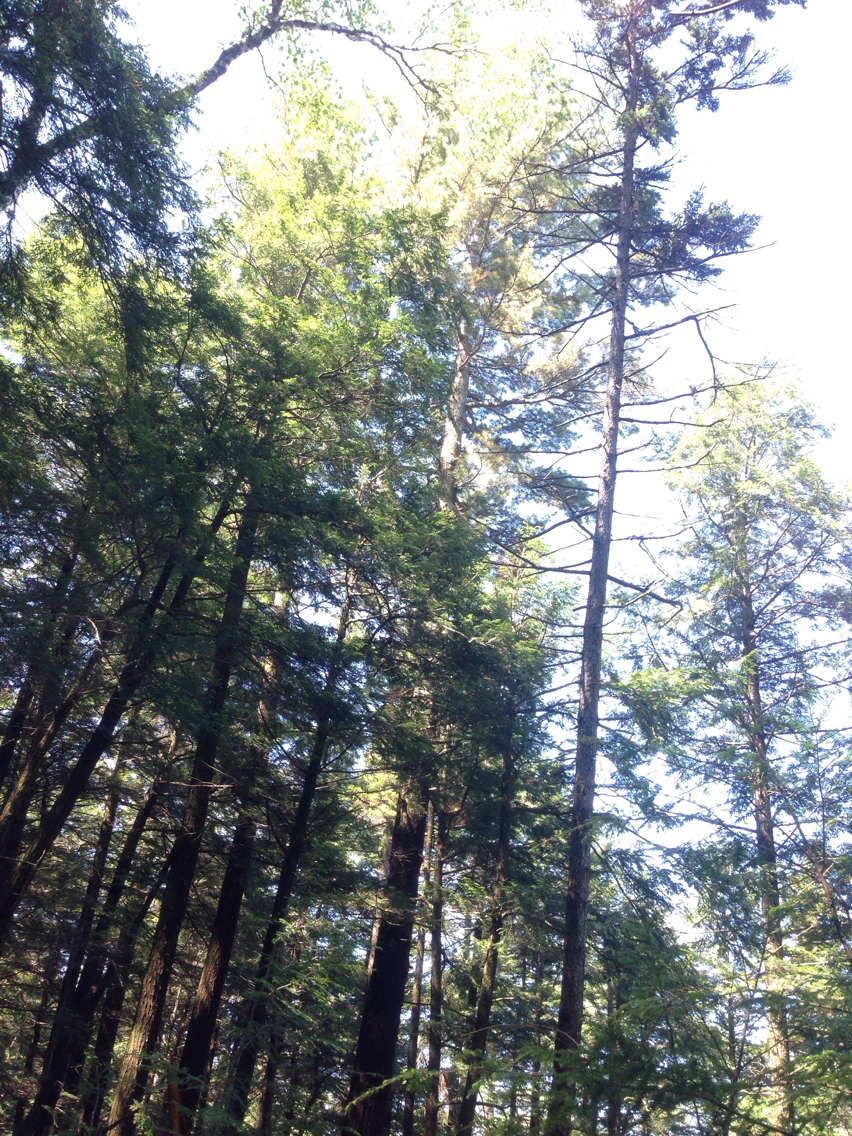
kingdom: Plantae
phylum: Tracheophyta
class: Pinopsida
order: Pinales
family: Pinaceae
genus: Pinus
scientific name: Pinus strobus
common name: Weymouth pine
